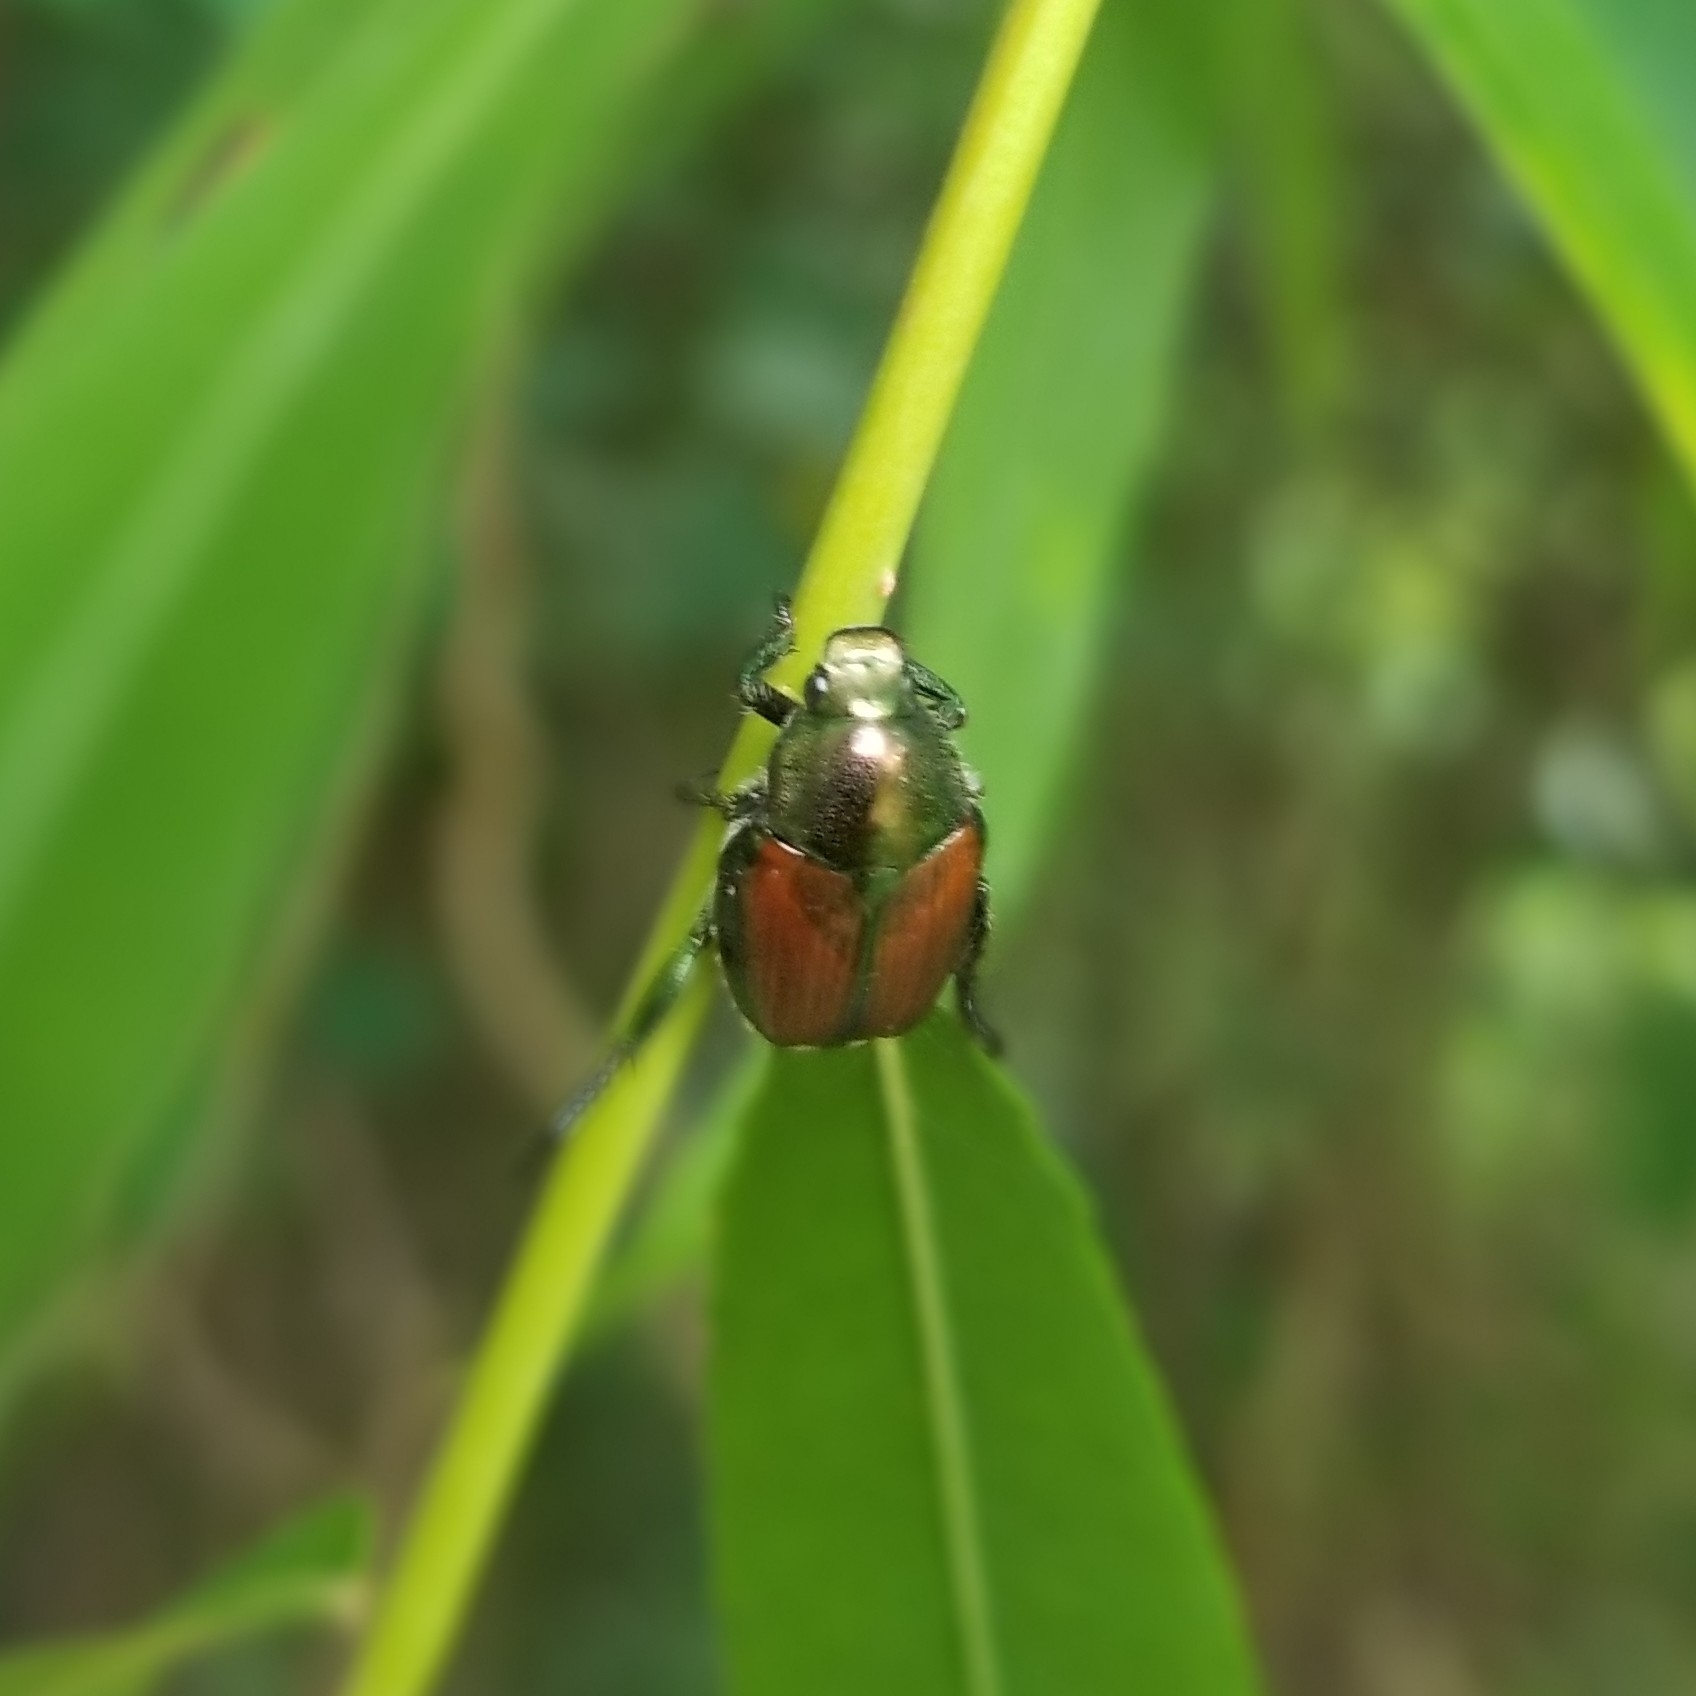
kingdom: Animalia
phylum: Arthropoda
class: Insecta
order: Coleoptera
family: Scarabaeidae
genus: Popillia
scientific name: Popillia japonica
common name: Japanese beetle
